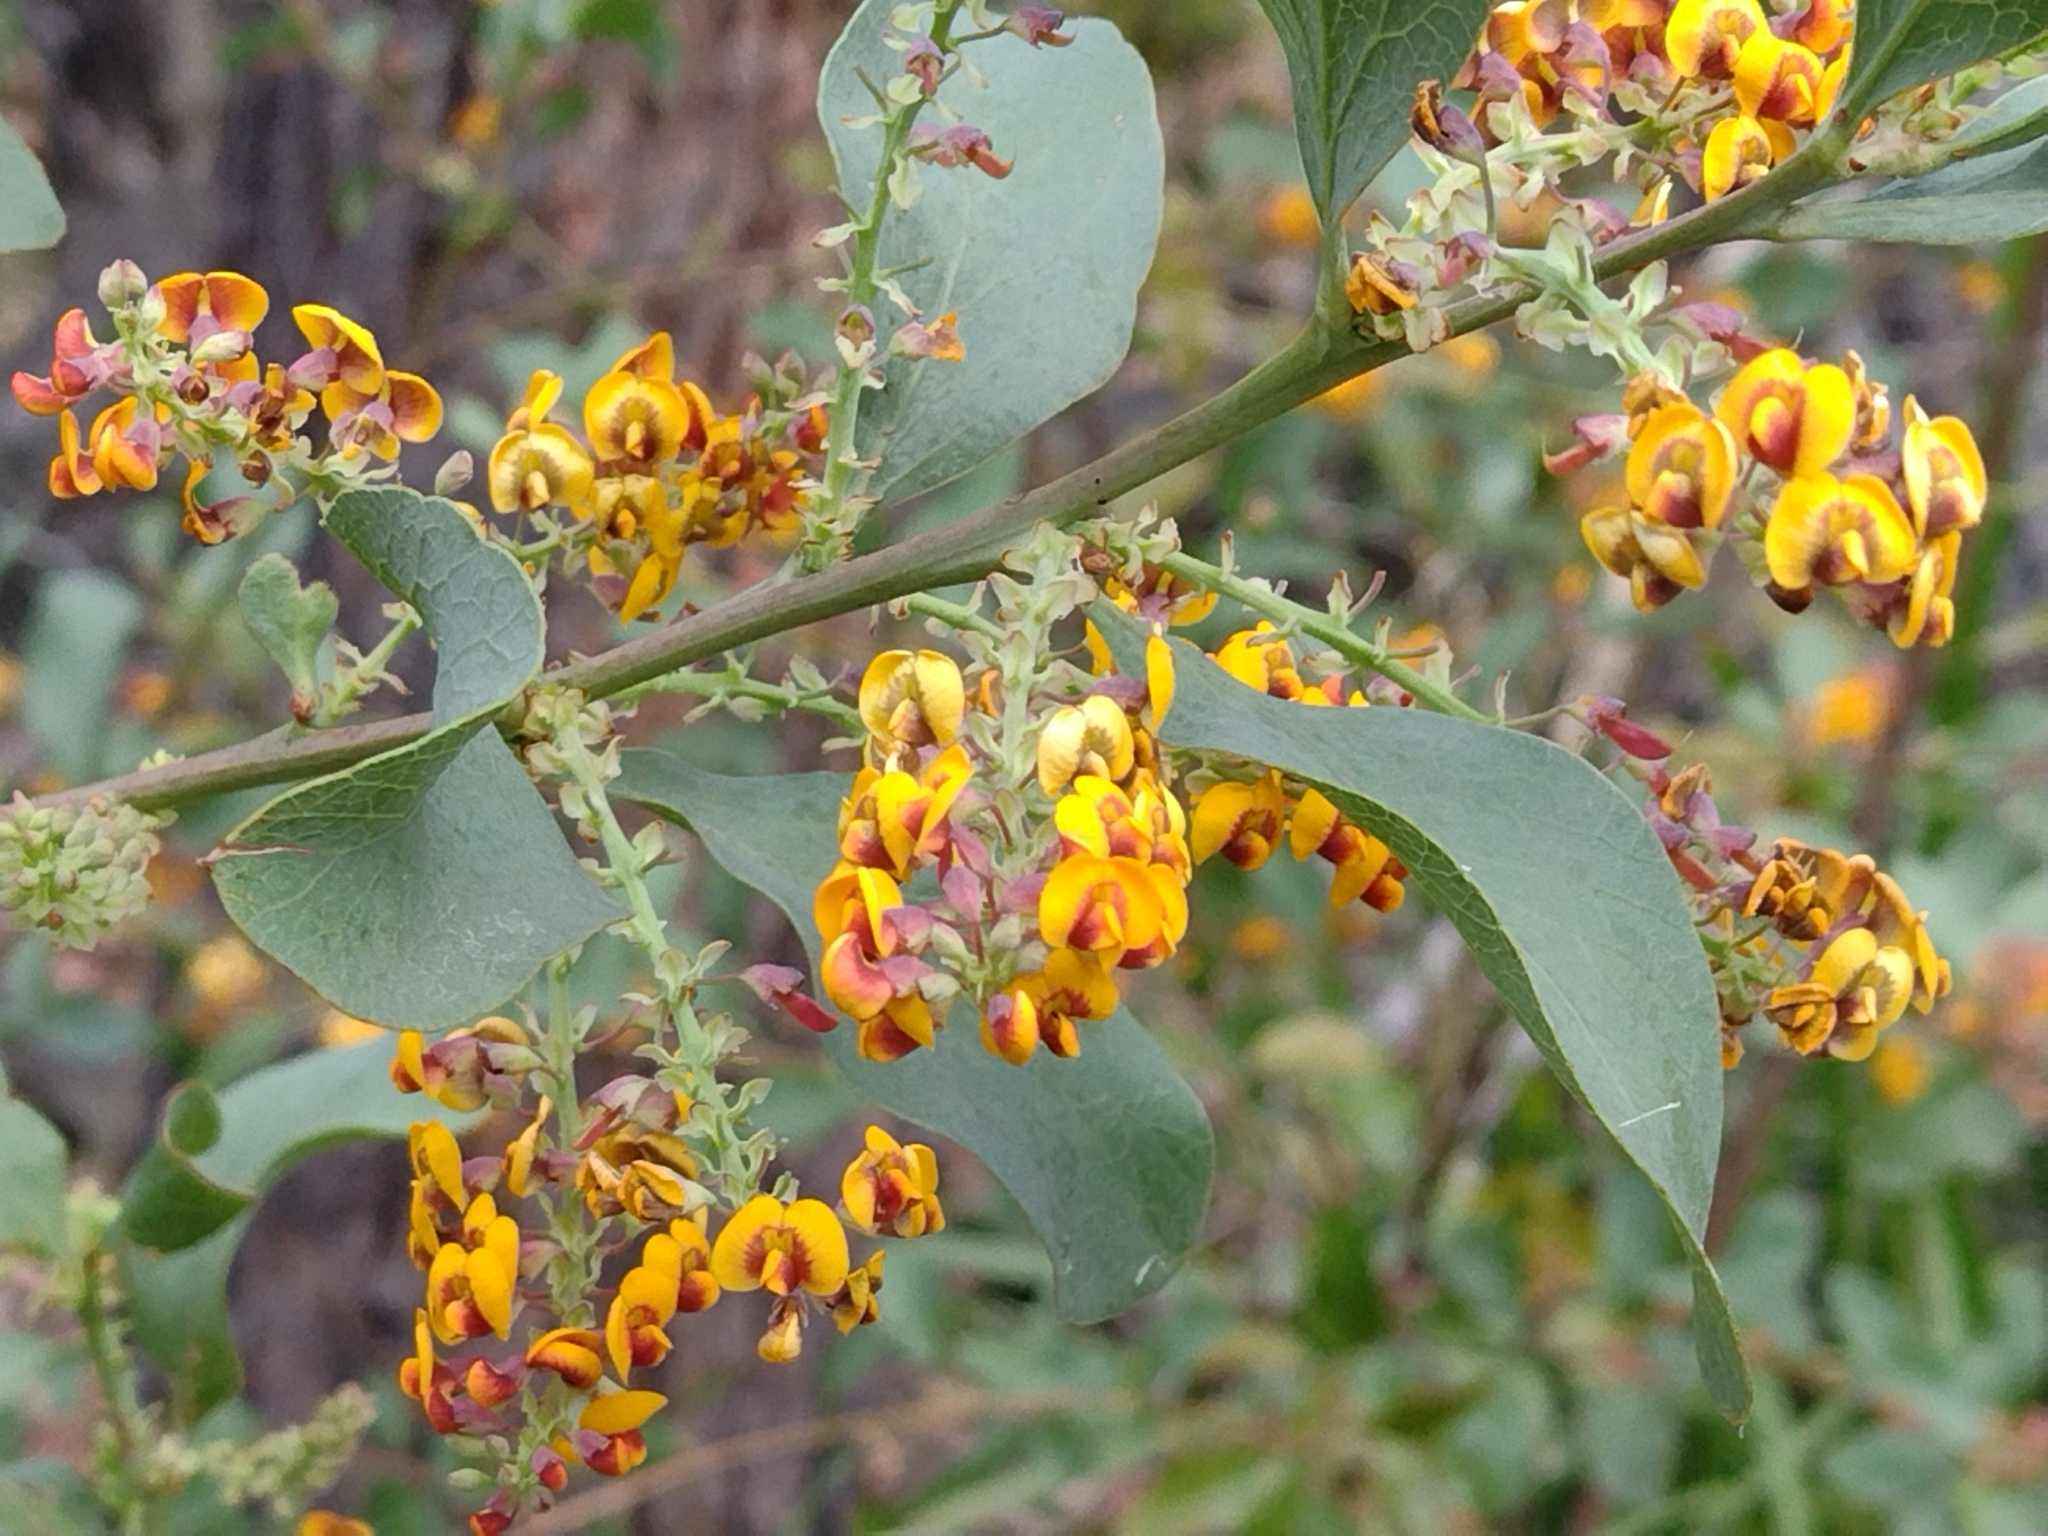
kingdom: Plantae
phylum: Tracheophyta
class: Magnoliopsida
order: Fabales
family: Fabaceae
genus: Daviesia
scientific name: Daviesia latifolia
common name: Hop bitter-pea
